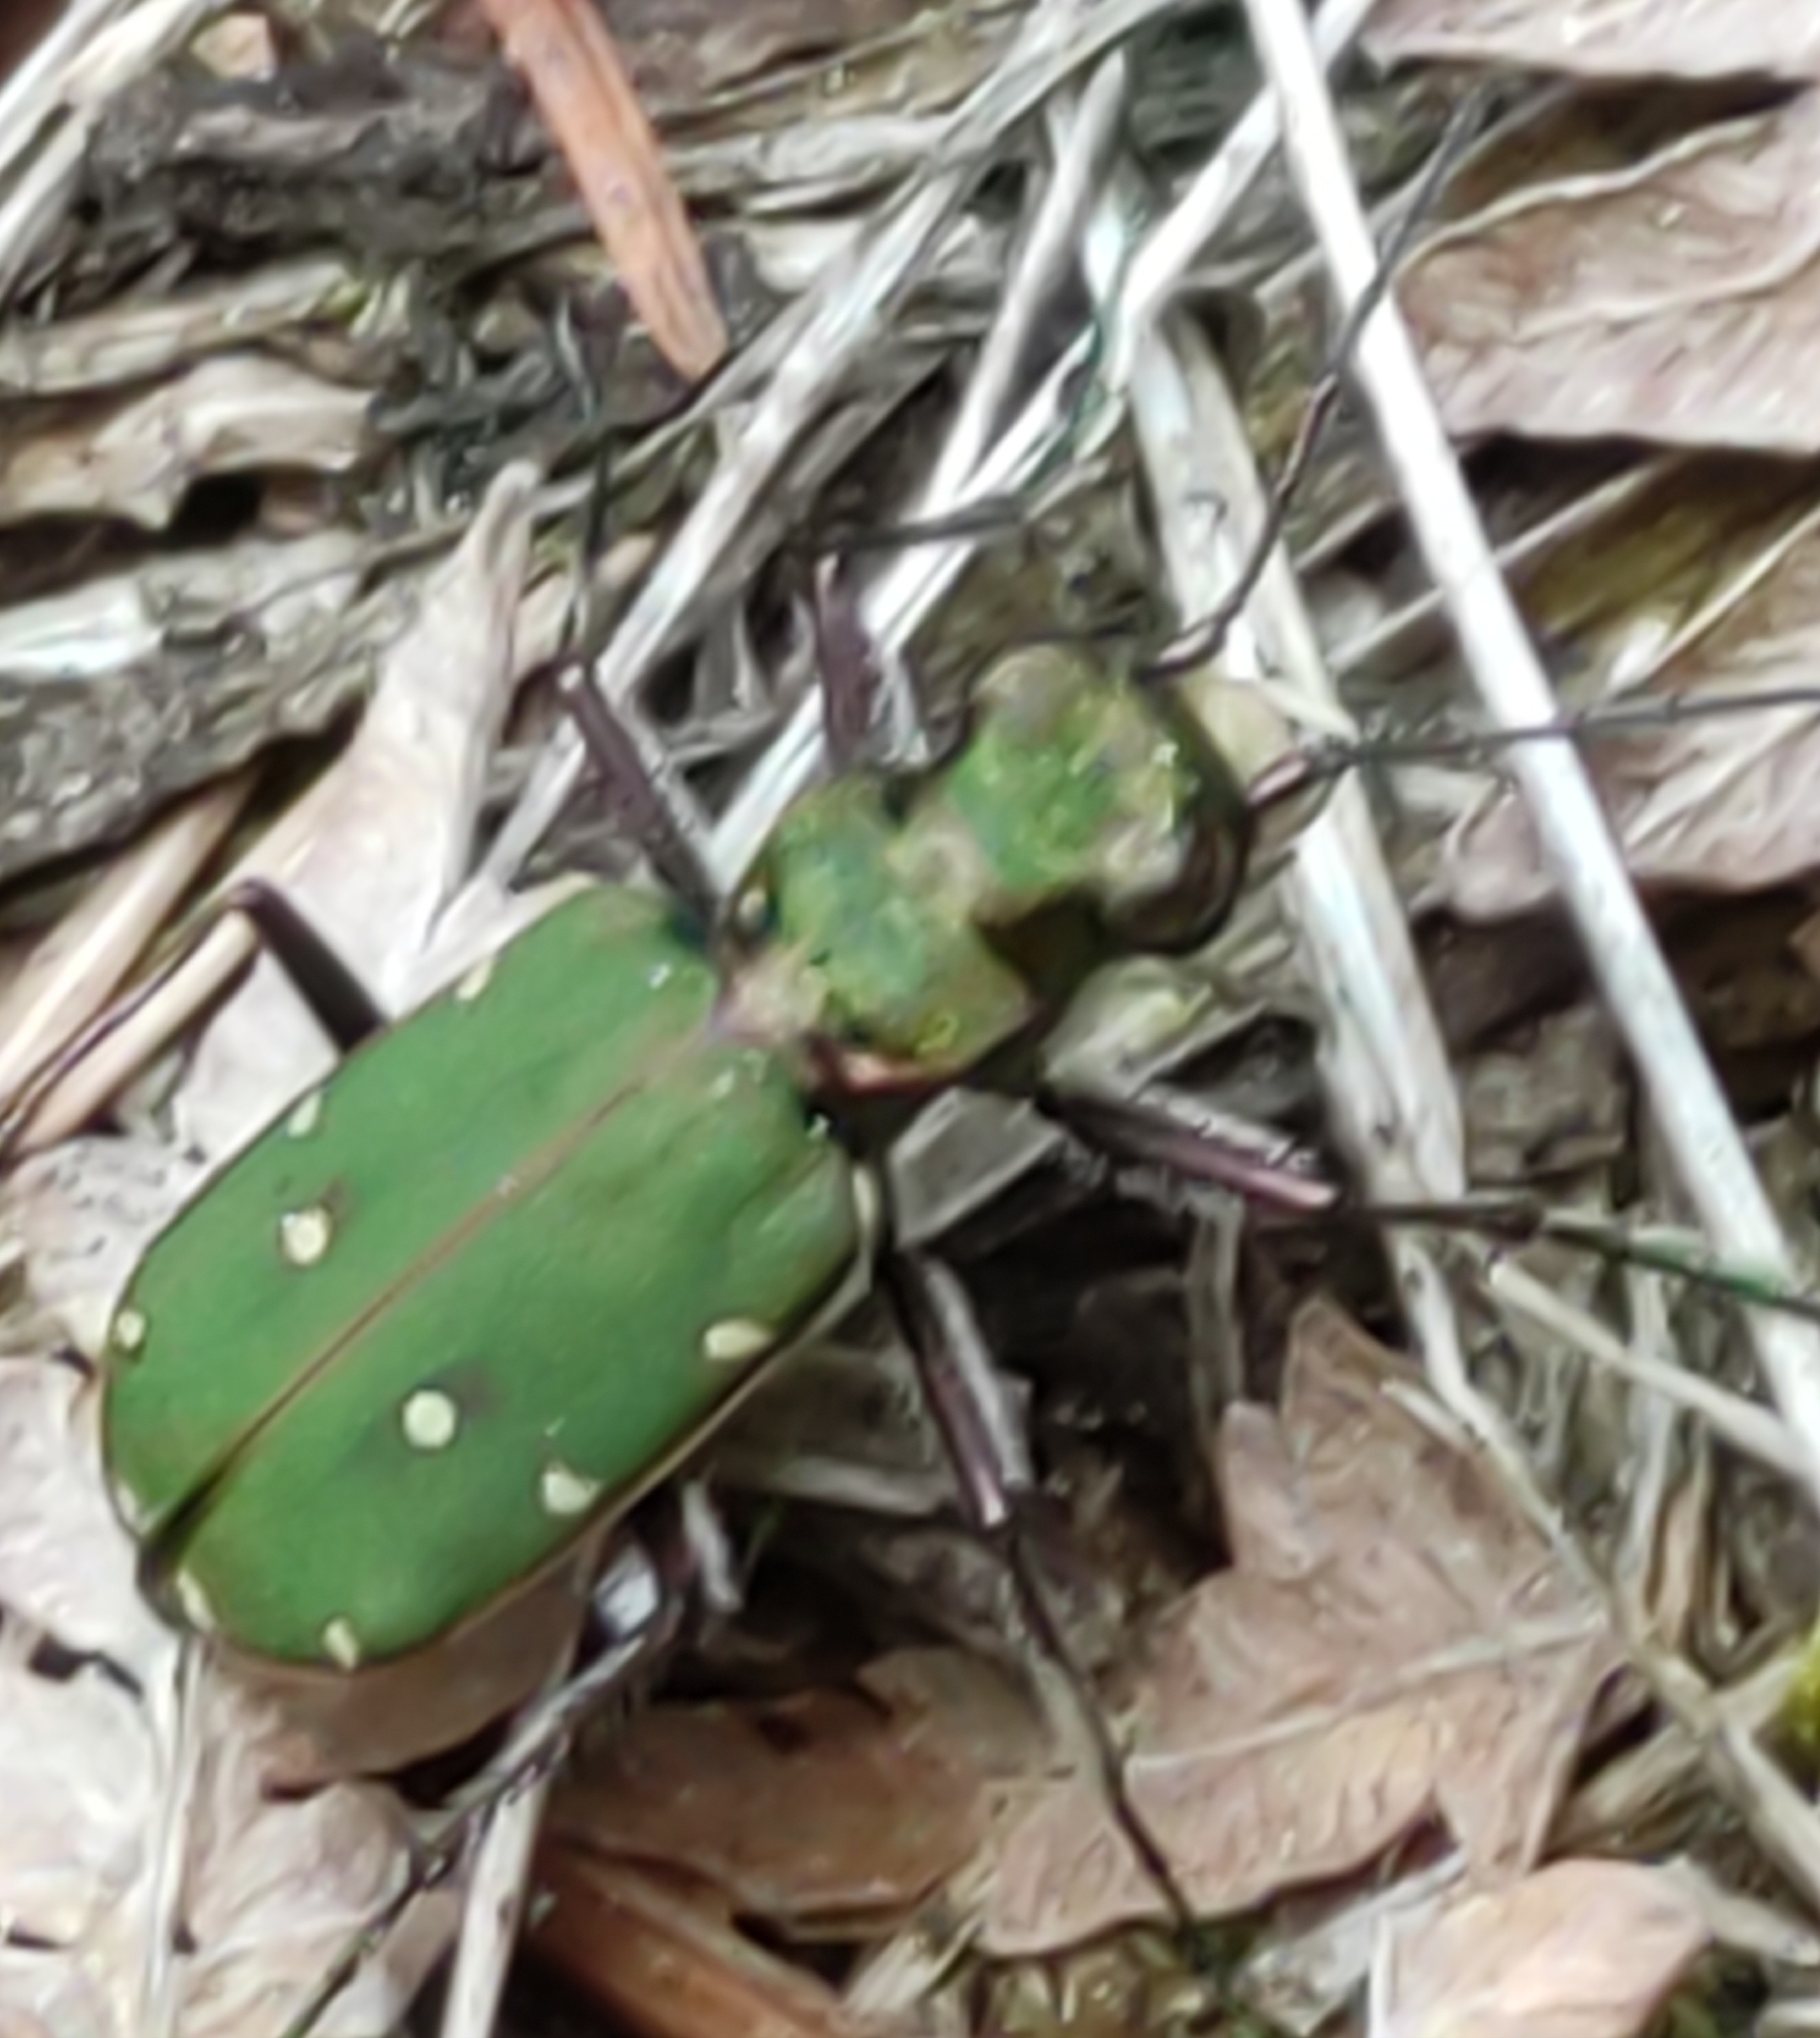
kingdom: Animalia
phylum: Arthropoda
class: Insecta
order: Coleoptera
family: Carabidae
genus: Cicindela
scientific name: Cicindela campestris
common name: Common tiger beetle
